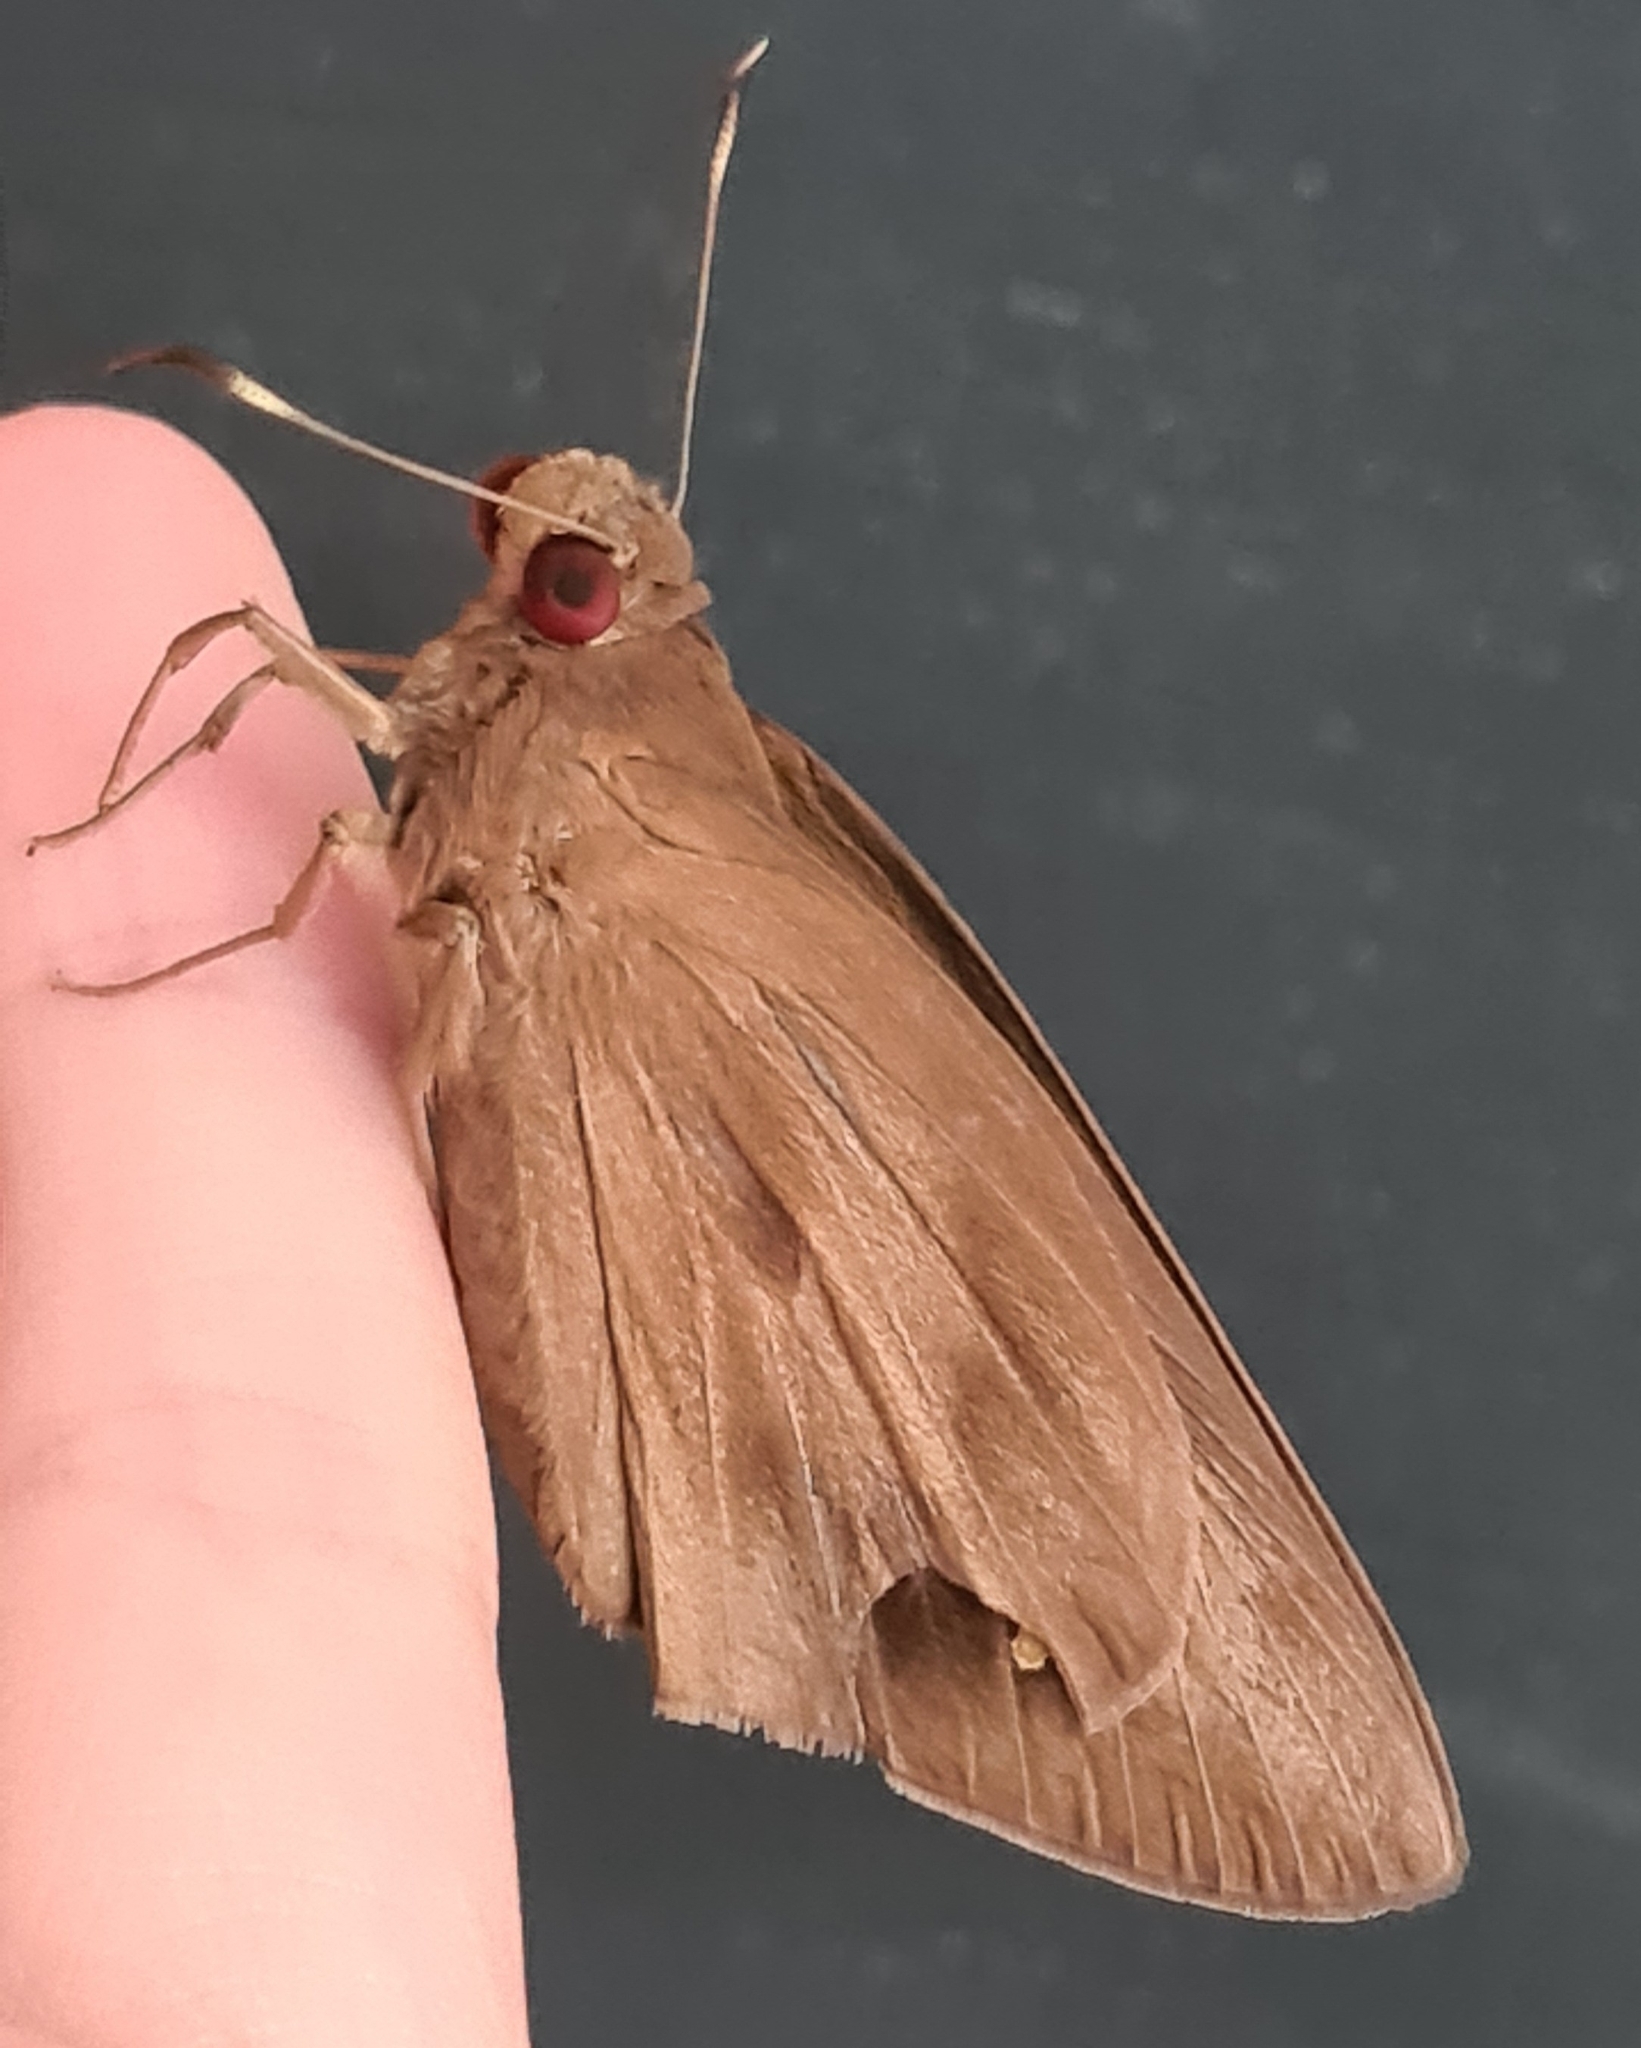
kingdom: Animalia
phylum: Arthropoda
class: Insecta
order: Lepidoptera
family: Hesperiidae
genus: Erionota
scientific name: Erionota torus
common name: Rounded palm-redeye
